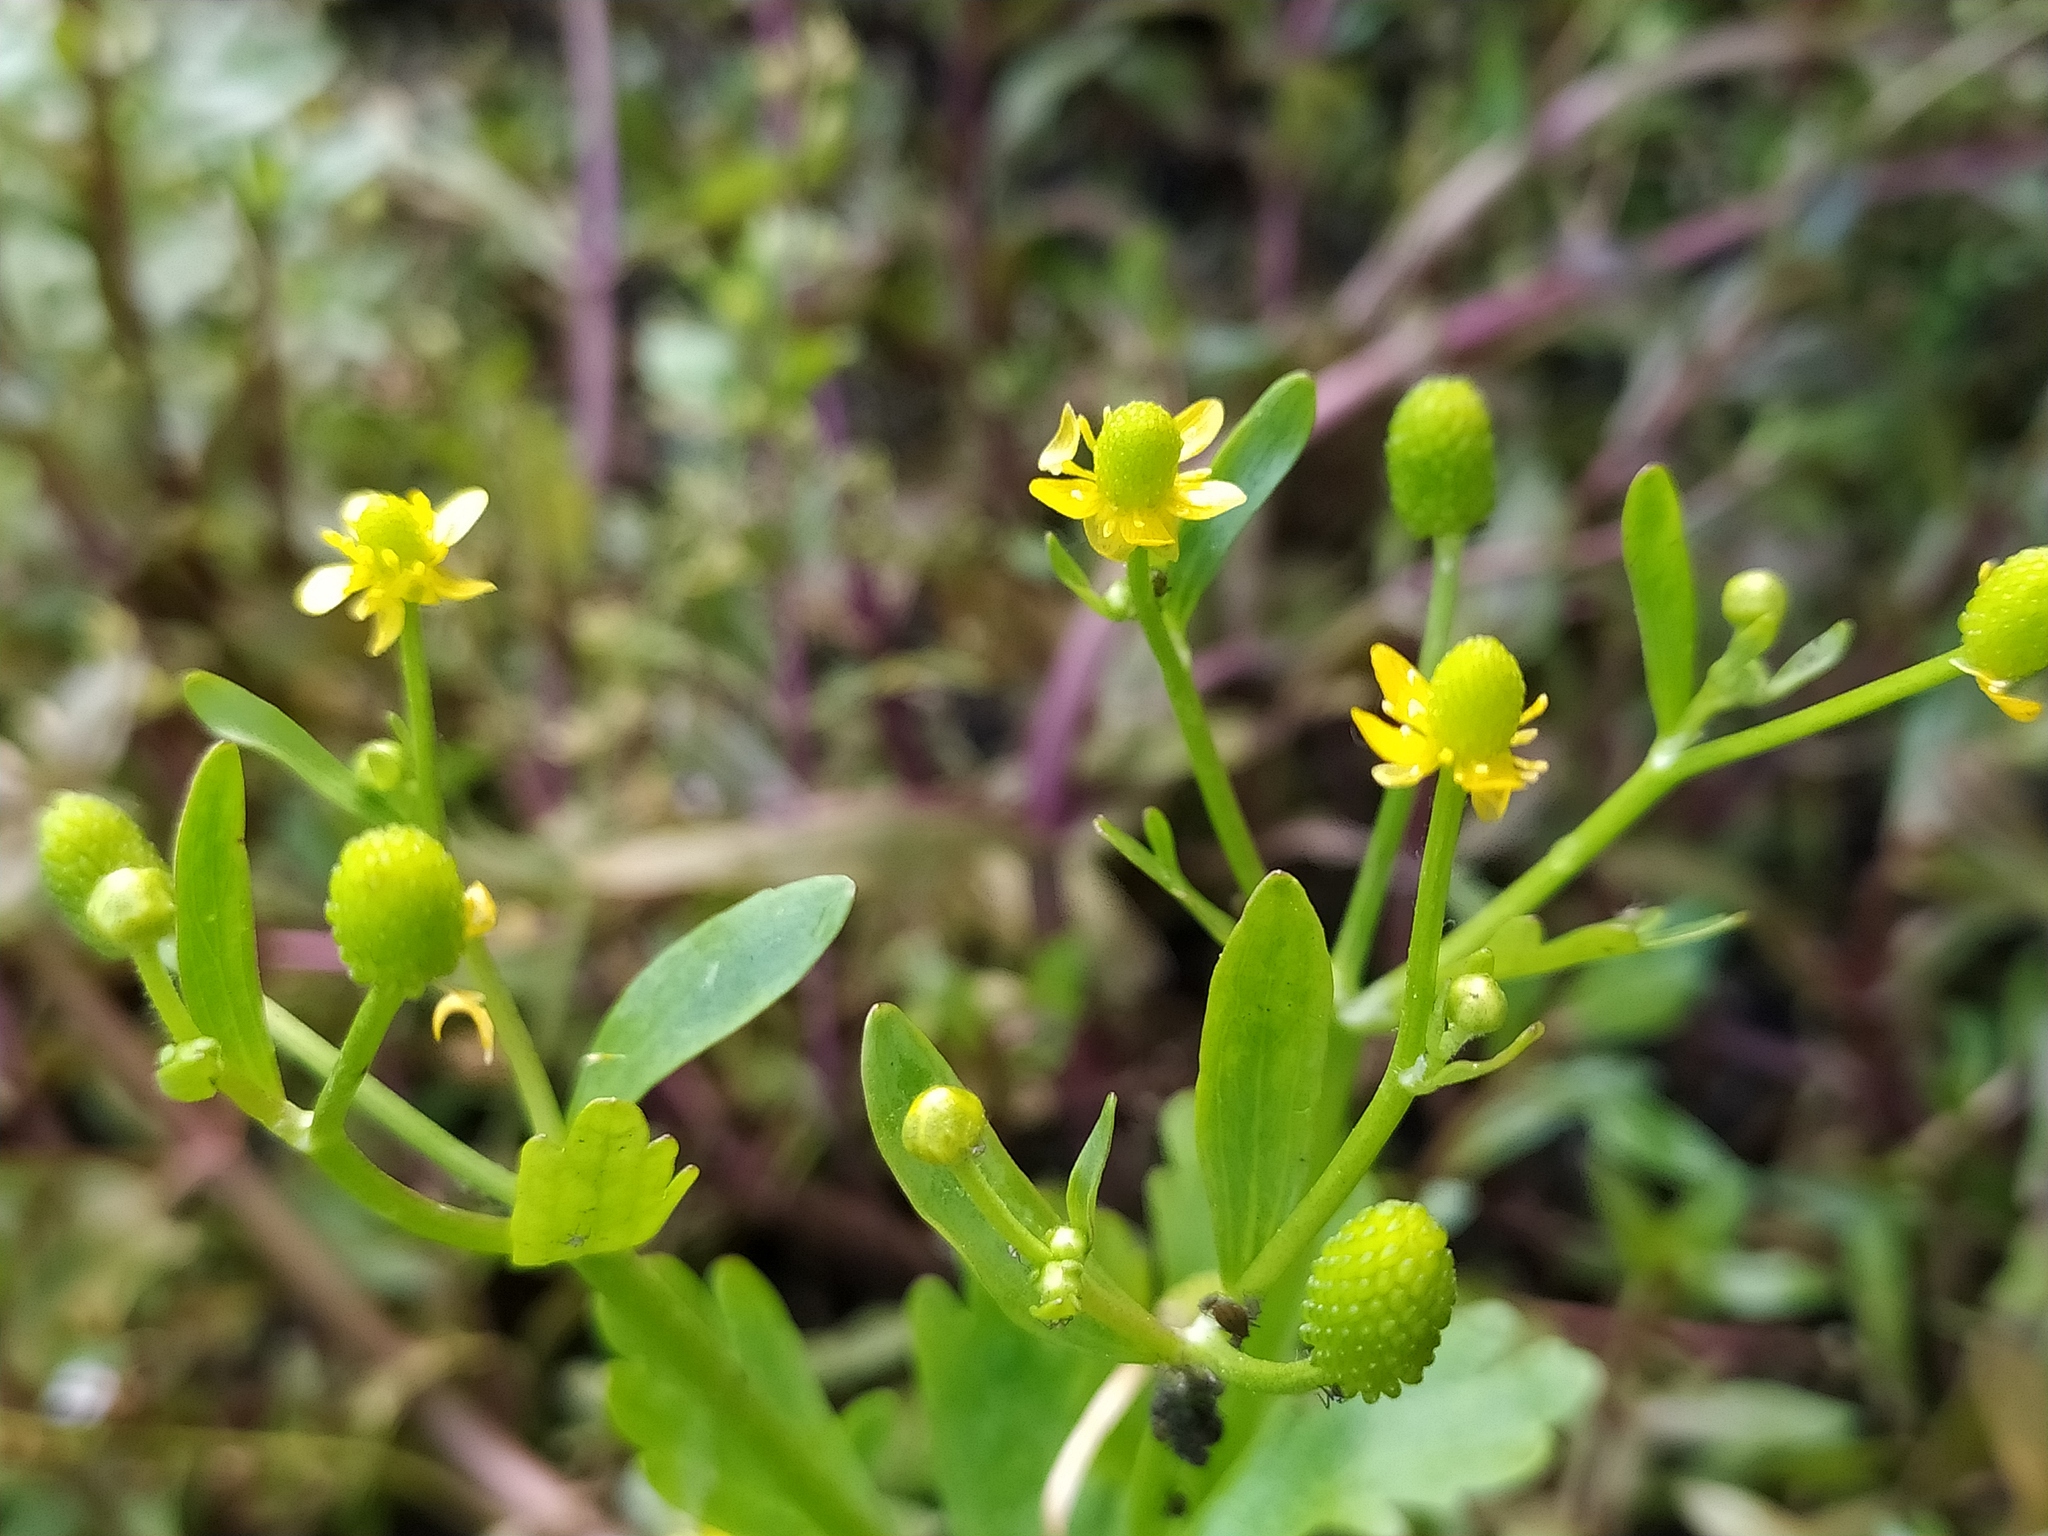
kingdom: Plantae
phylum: Tracheophyta
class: Magnoliopsida
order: Ranunculales
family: Ranunculaceae
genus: Ranunculus
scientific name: Ranunculus sceleratus
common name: Celery-leaved buttercup
